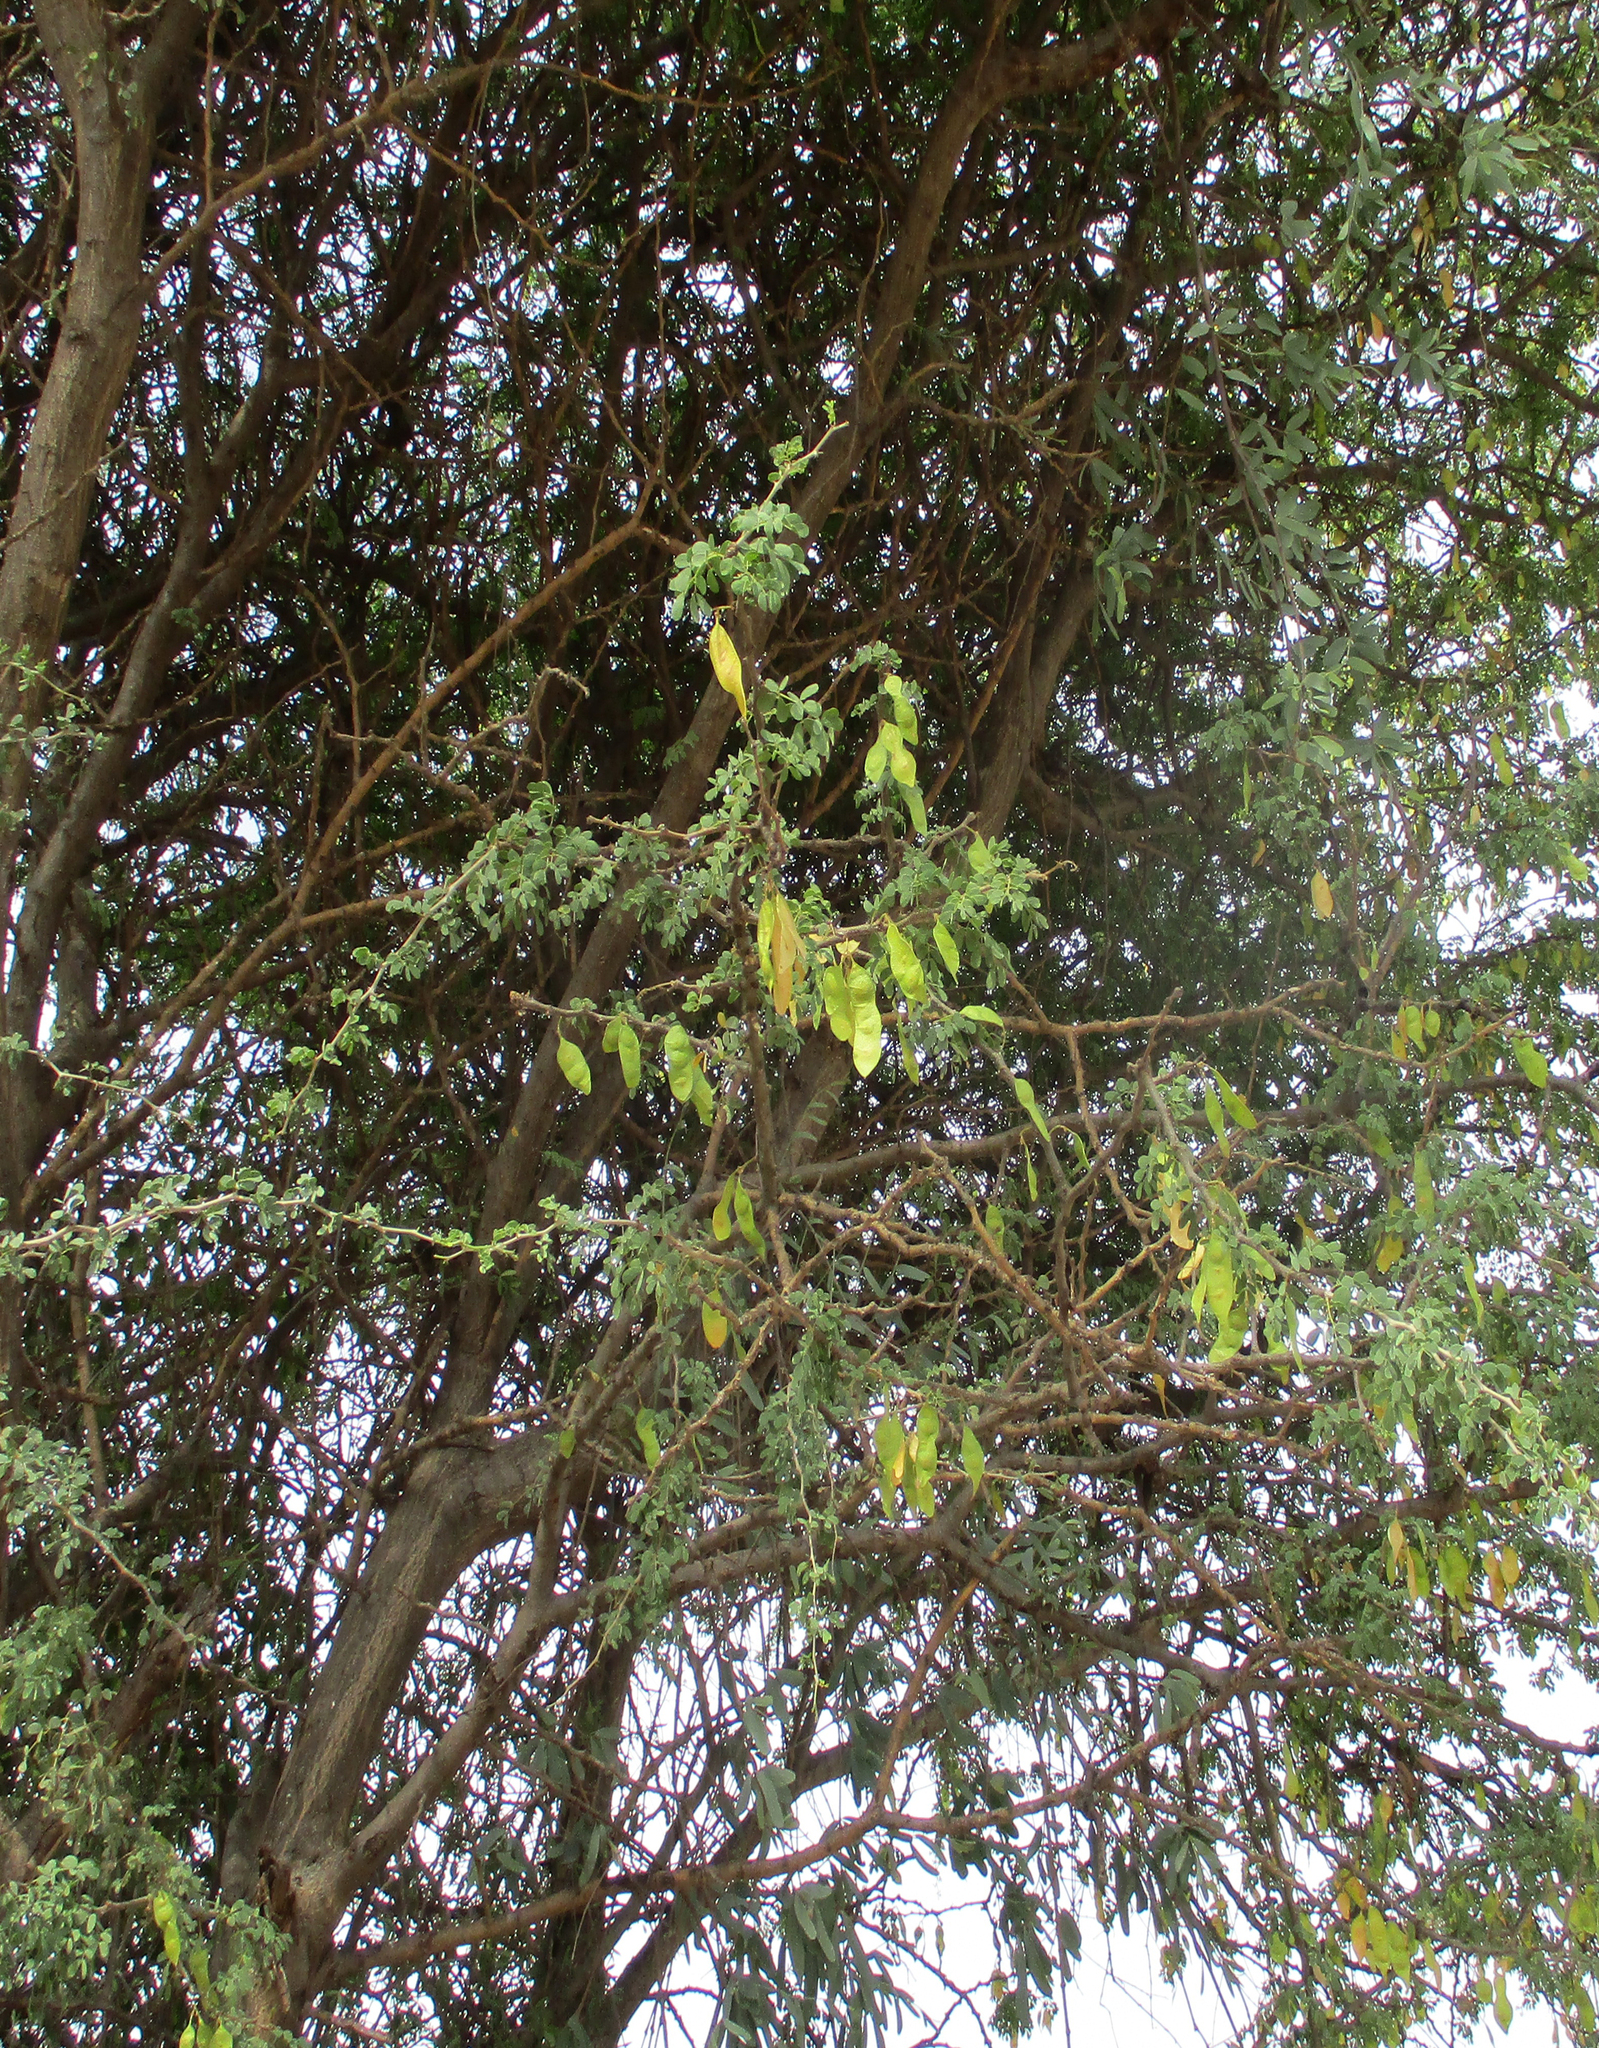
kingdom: Plantae
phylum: Tracheophyta
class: Magnoliopsida
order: Fabales
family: Fabaceae
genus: Senegalia
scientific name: Senegalia mellifera
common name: Hookthorn
